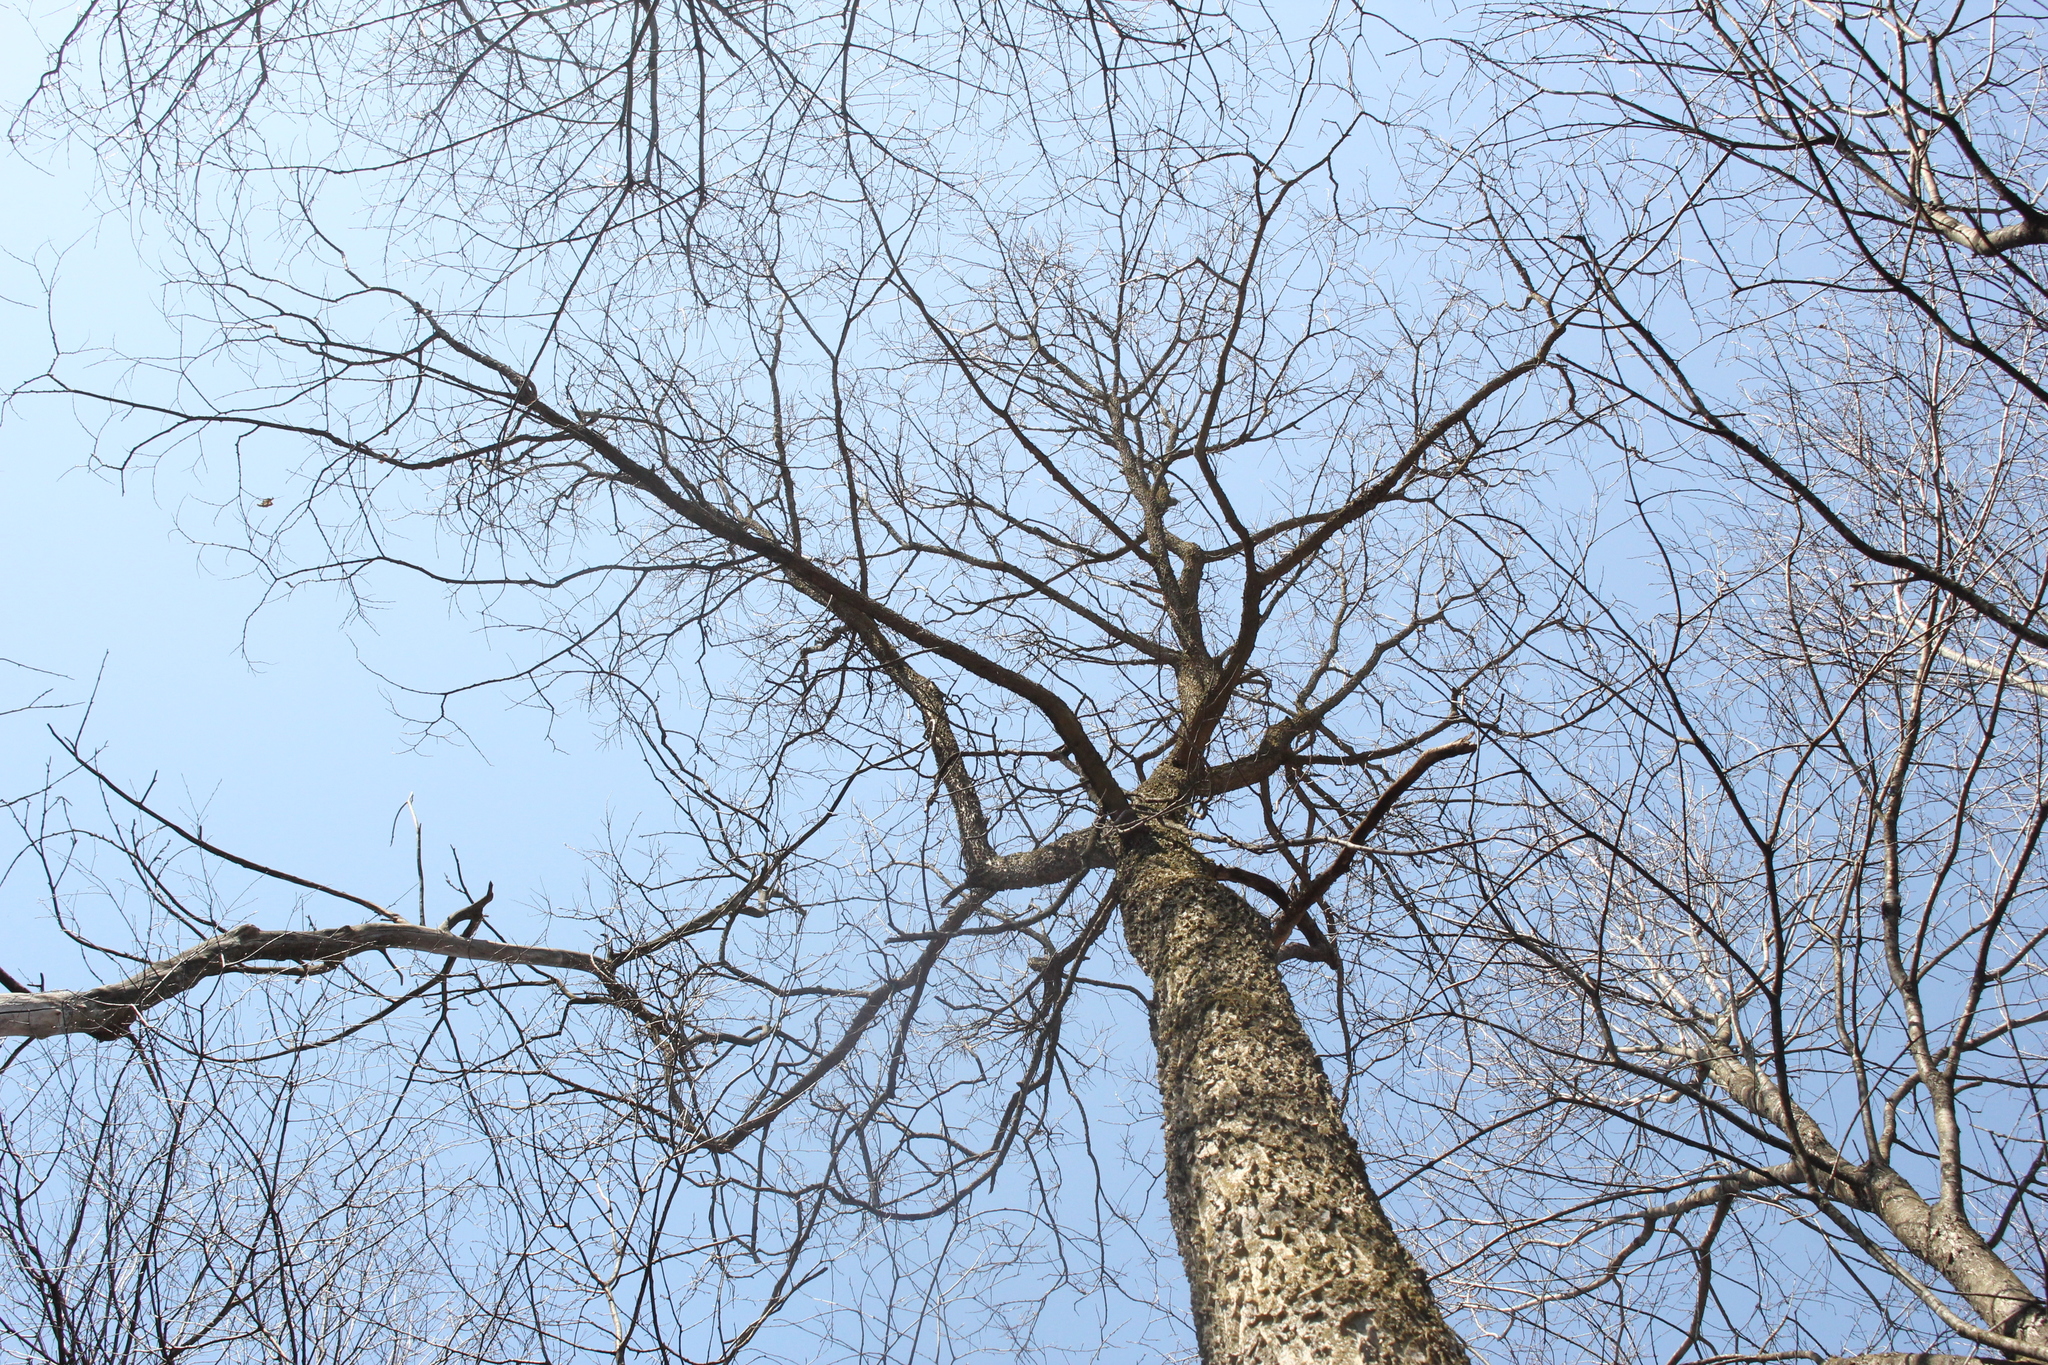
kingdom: Plantae
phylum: Tracheophyta
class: Magnoliopsida
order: Rosales
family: Cannabaceae
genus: Celtis
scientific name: Celtis occidentalis
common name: Common hackberry
